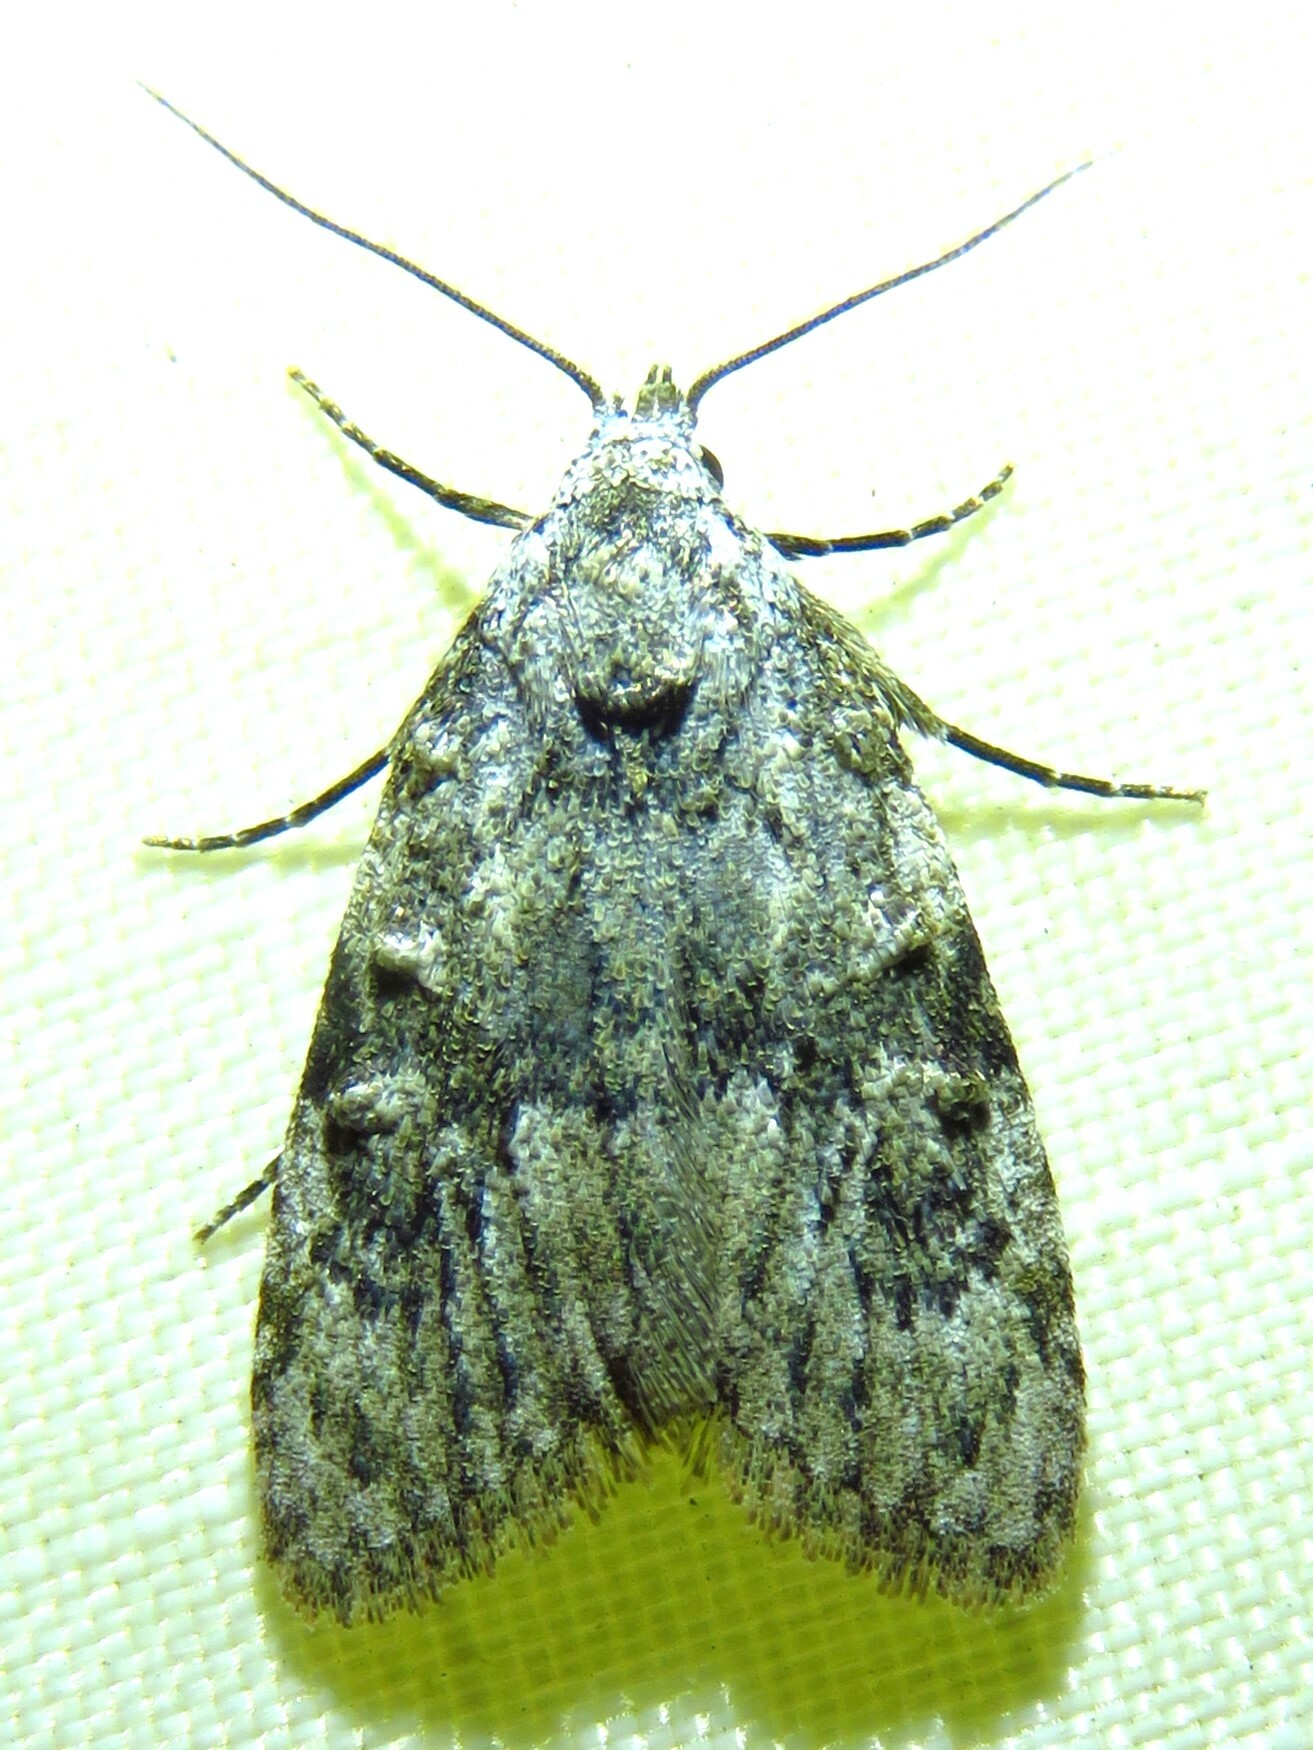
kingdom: Animalia
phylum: Arthropoda
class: Insecta
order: Lepidoptera
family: Nolidae
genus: Meganola
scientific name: Meganola spodia
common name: Ashy meganola moth
